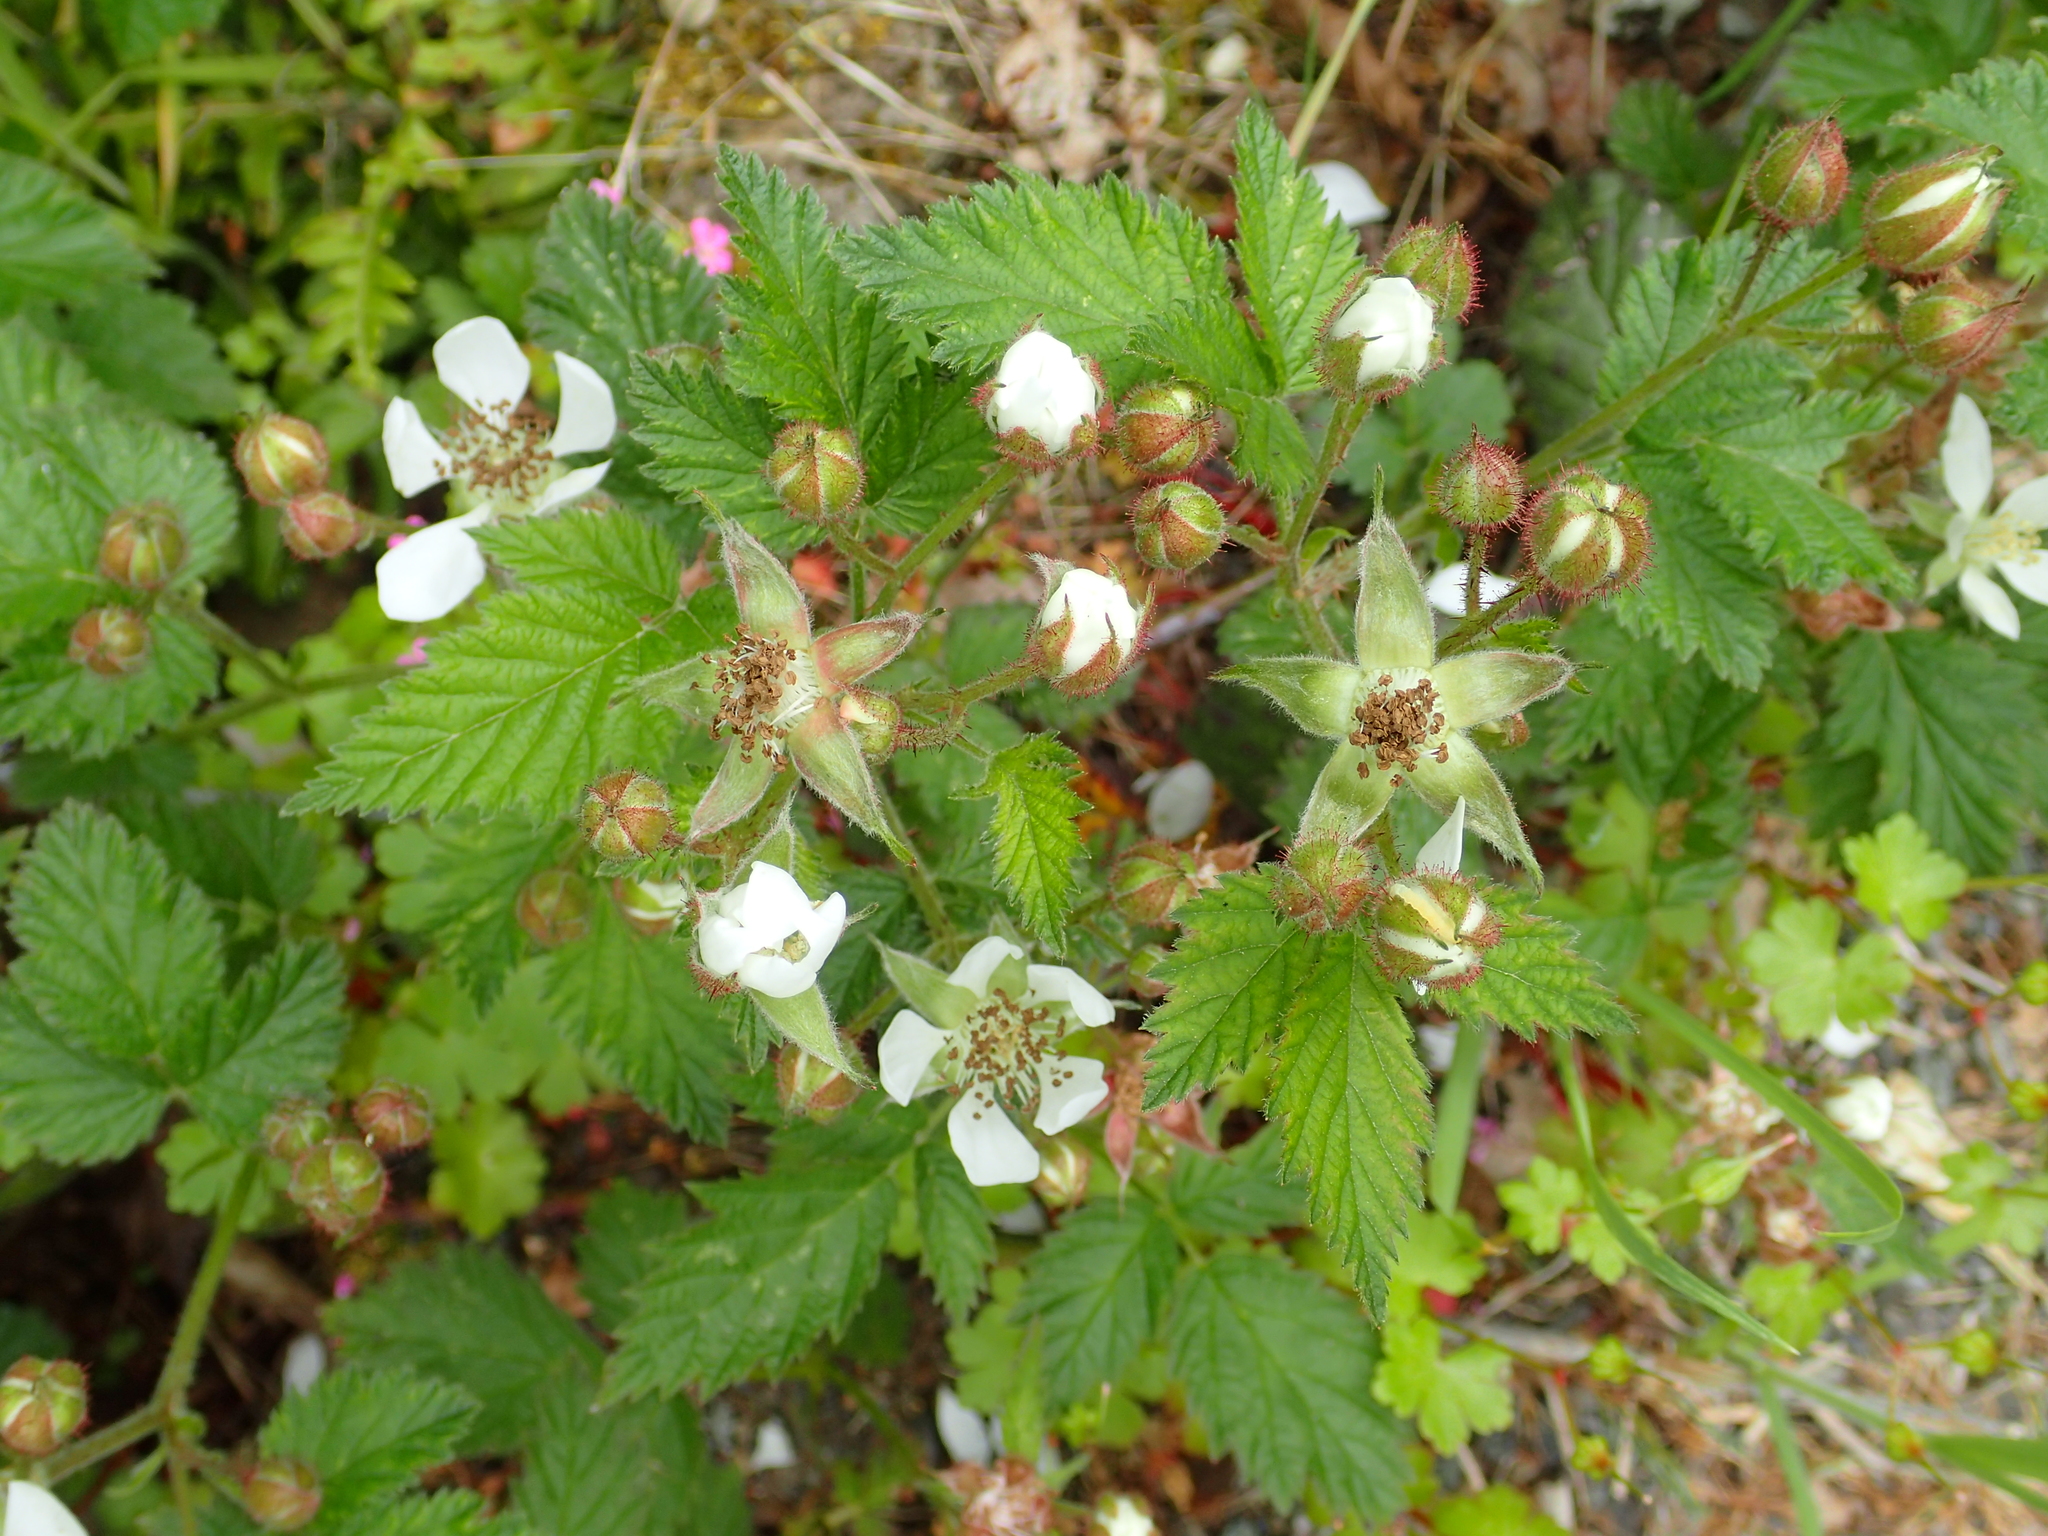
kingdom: Plantae
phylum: Tracheophyta
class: Magnoliopsida
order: Rosales
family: Rosaceae
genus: Rubus
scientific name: Rubus ursinus
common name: Pacific blackberry
